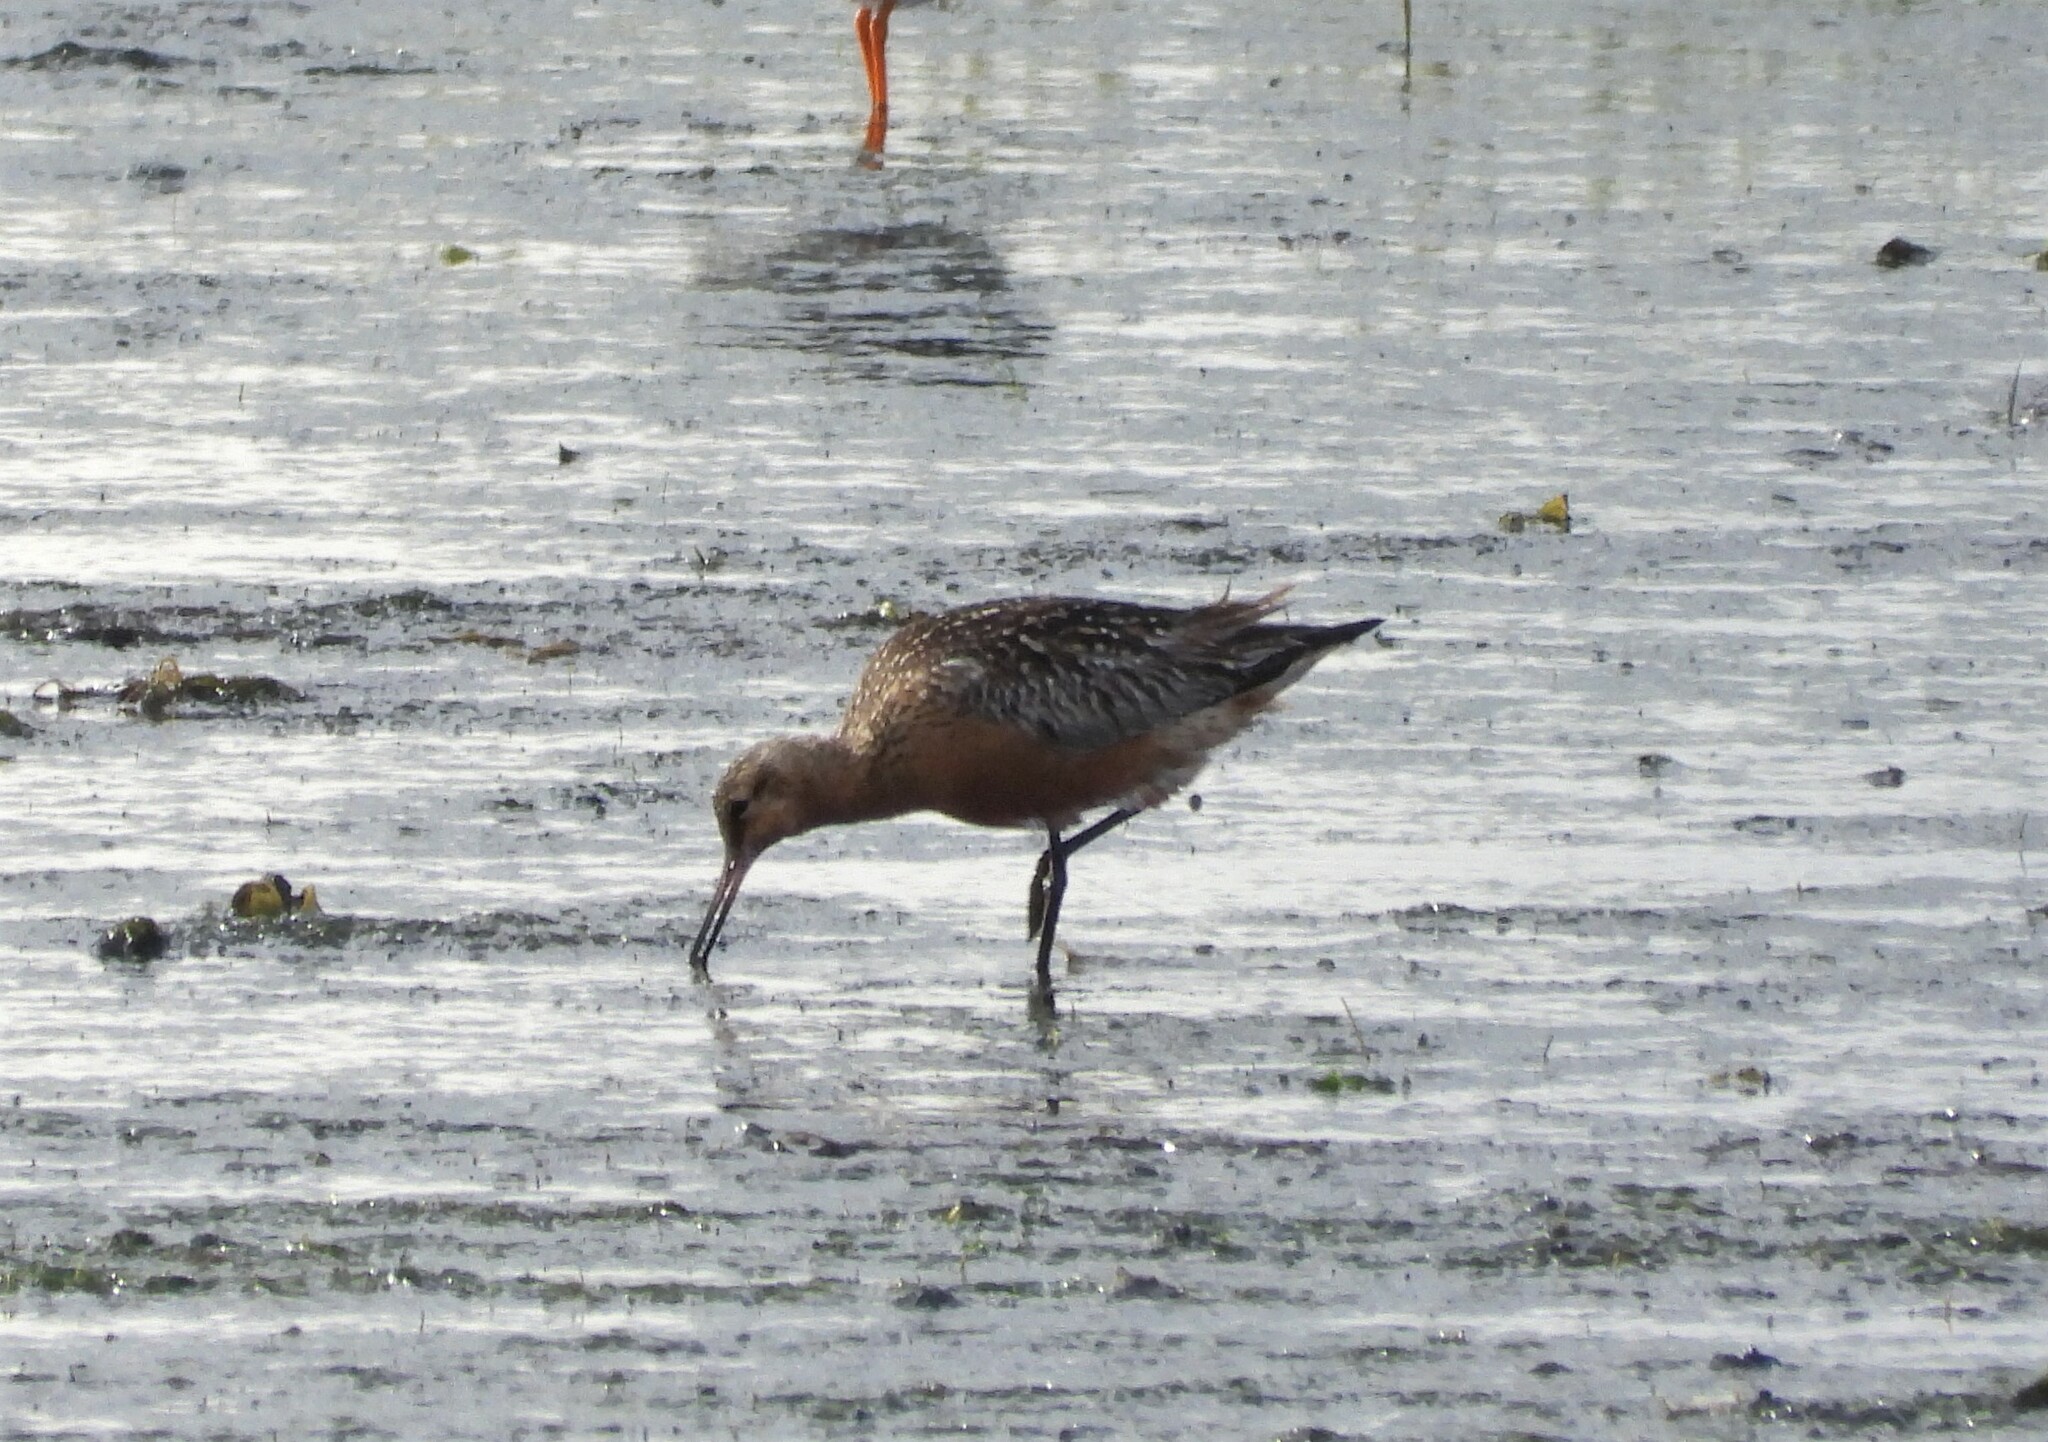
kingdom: Animalia
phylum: Chordata
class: Aves
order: Charadriiformes
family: Scolopacidae
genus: Limosa
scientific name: Limosa lapponica
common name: Bar-tailed godwit
